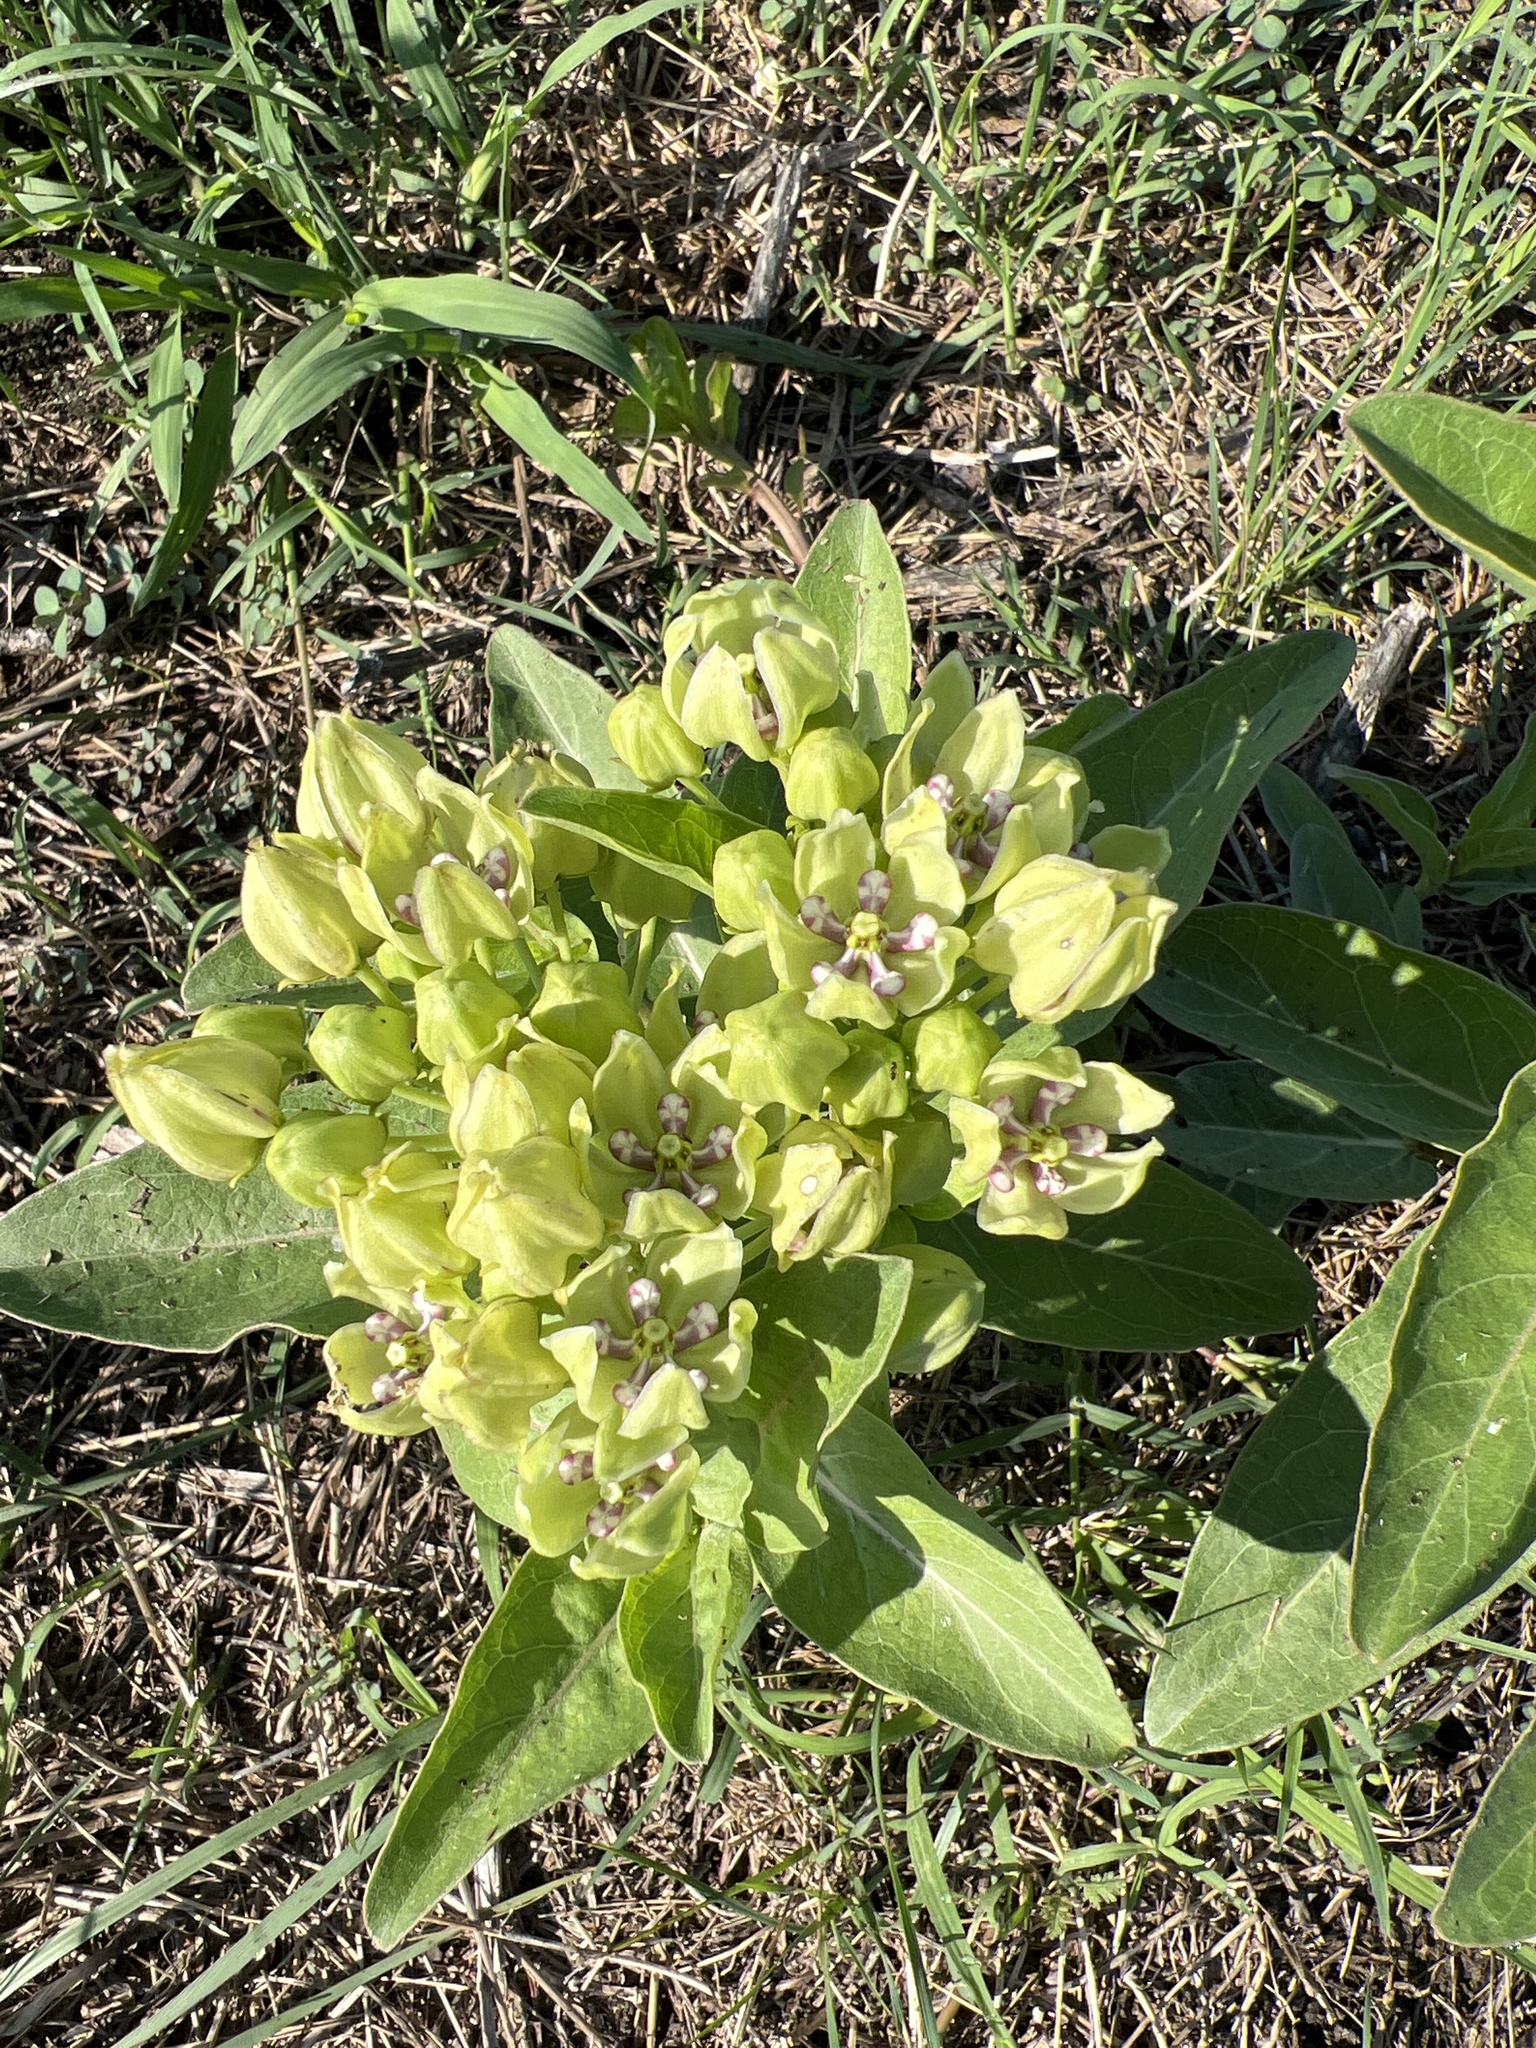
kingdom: Plantae
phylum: Tracheophyta
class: Magnoliopsida
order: Gentianales
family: Apocynaceae
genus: Asclepias
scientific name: Asclepias viridis
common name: Antelope-horns
